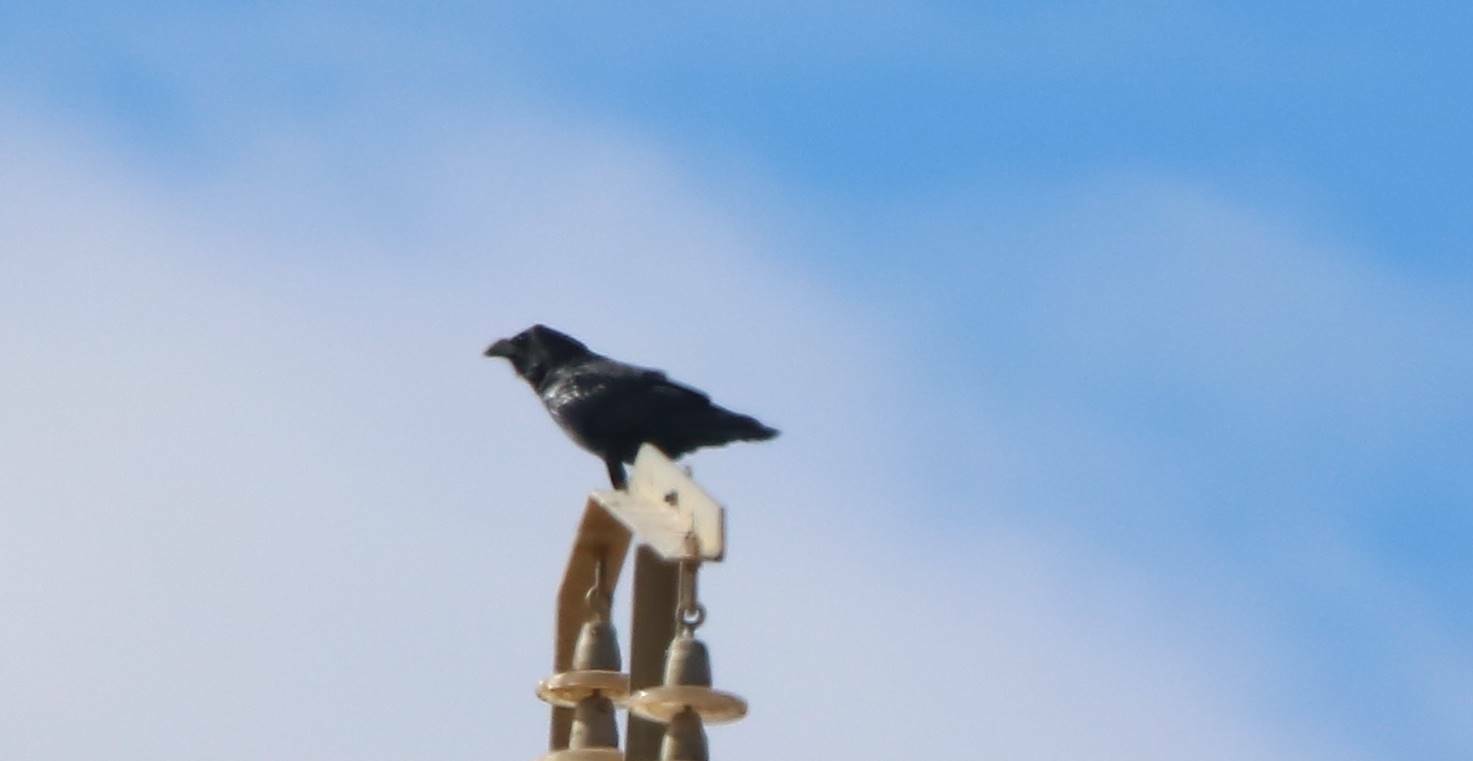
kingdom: Animalia
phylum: Chordata
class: Aves
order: Passeriformes
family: Corvidae
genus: Corvus
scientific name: Corvus corax
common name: Common raven
